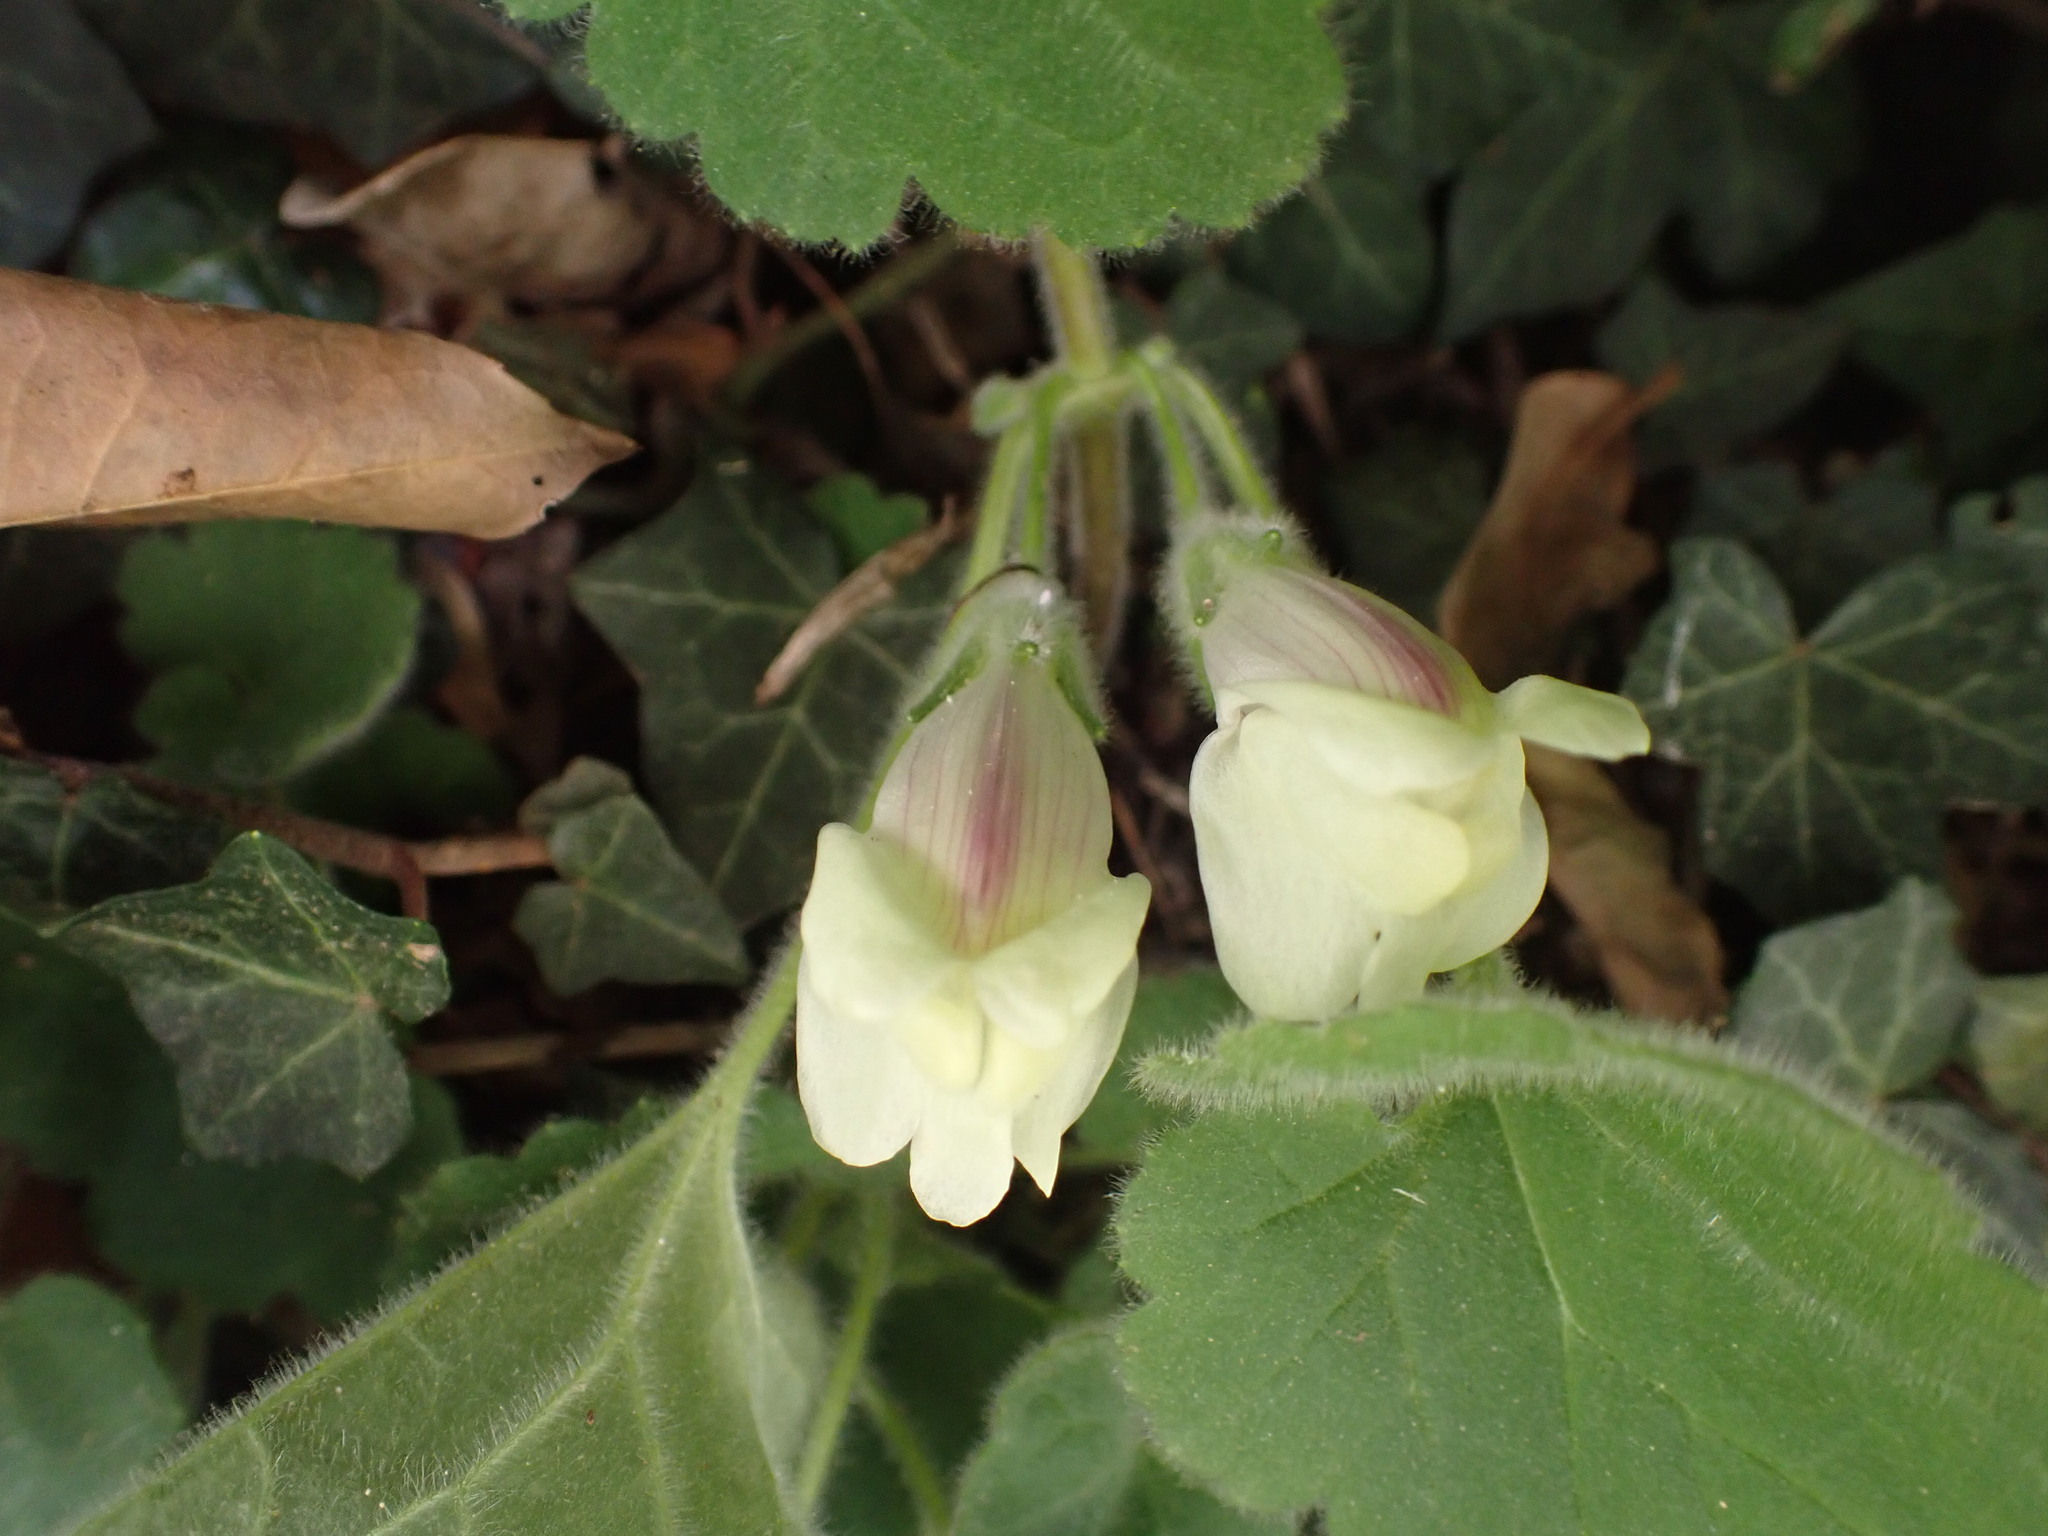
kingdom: Plantae
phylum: Tracheophyta
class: Magnoliopsida
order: Lamiales
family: Plantaginaceae
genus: Asarina
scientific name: Asarina procumbens
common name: Trailing snapdragon
